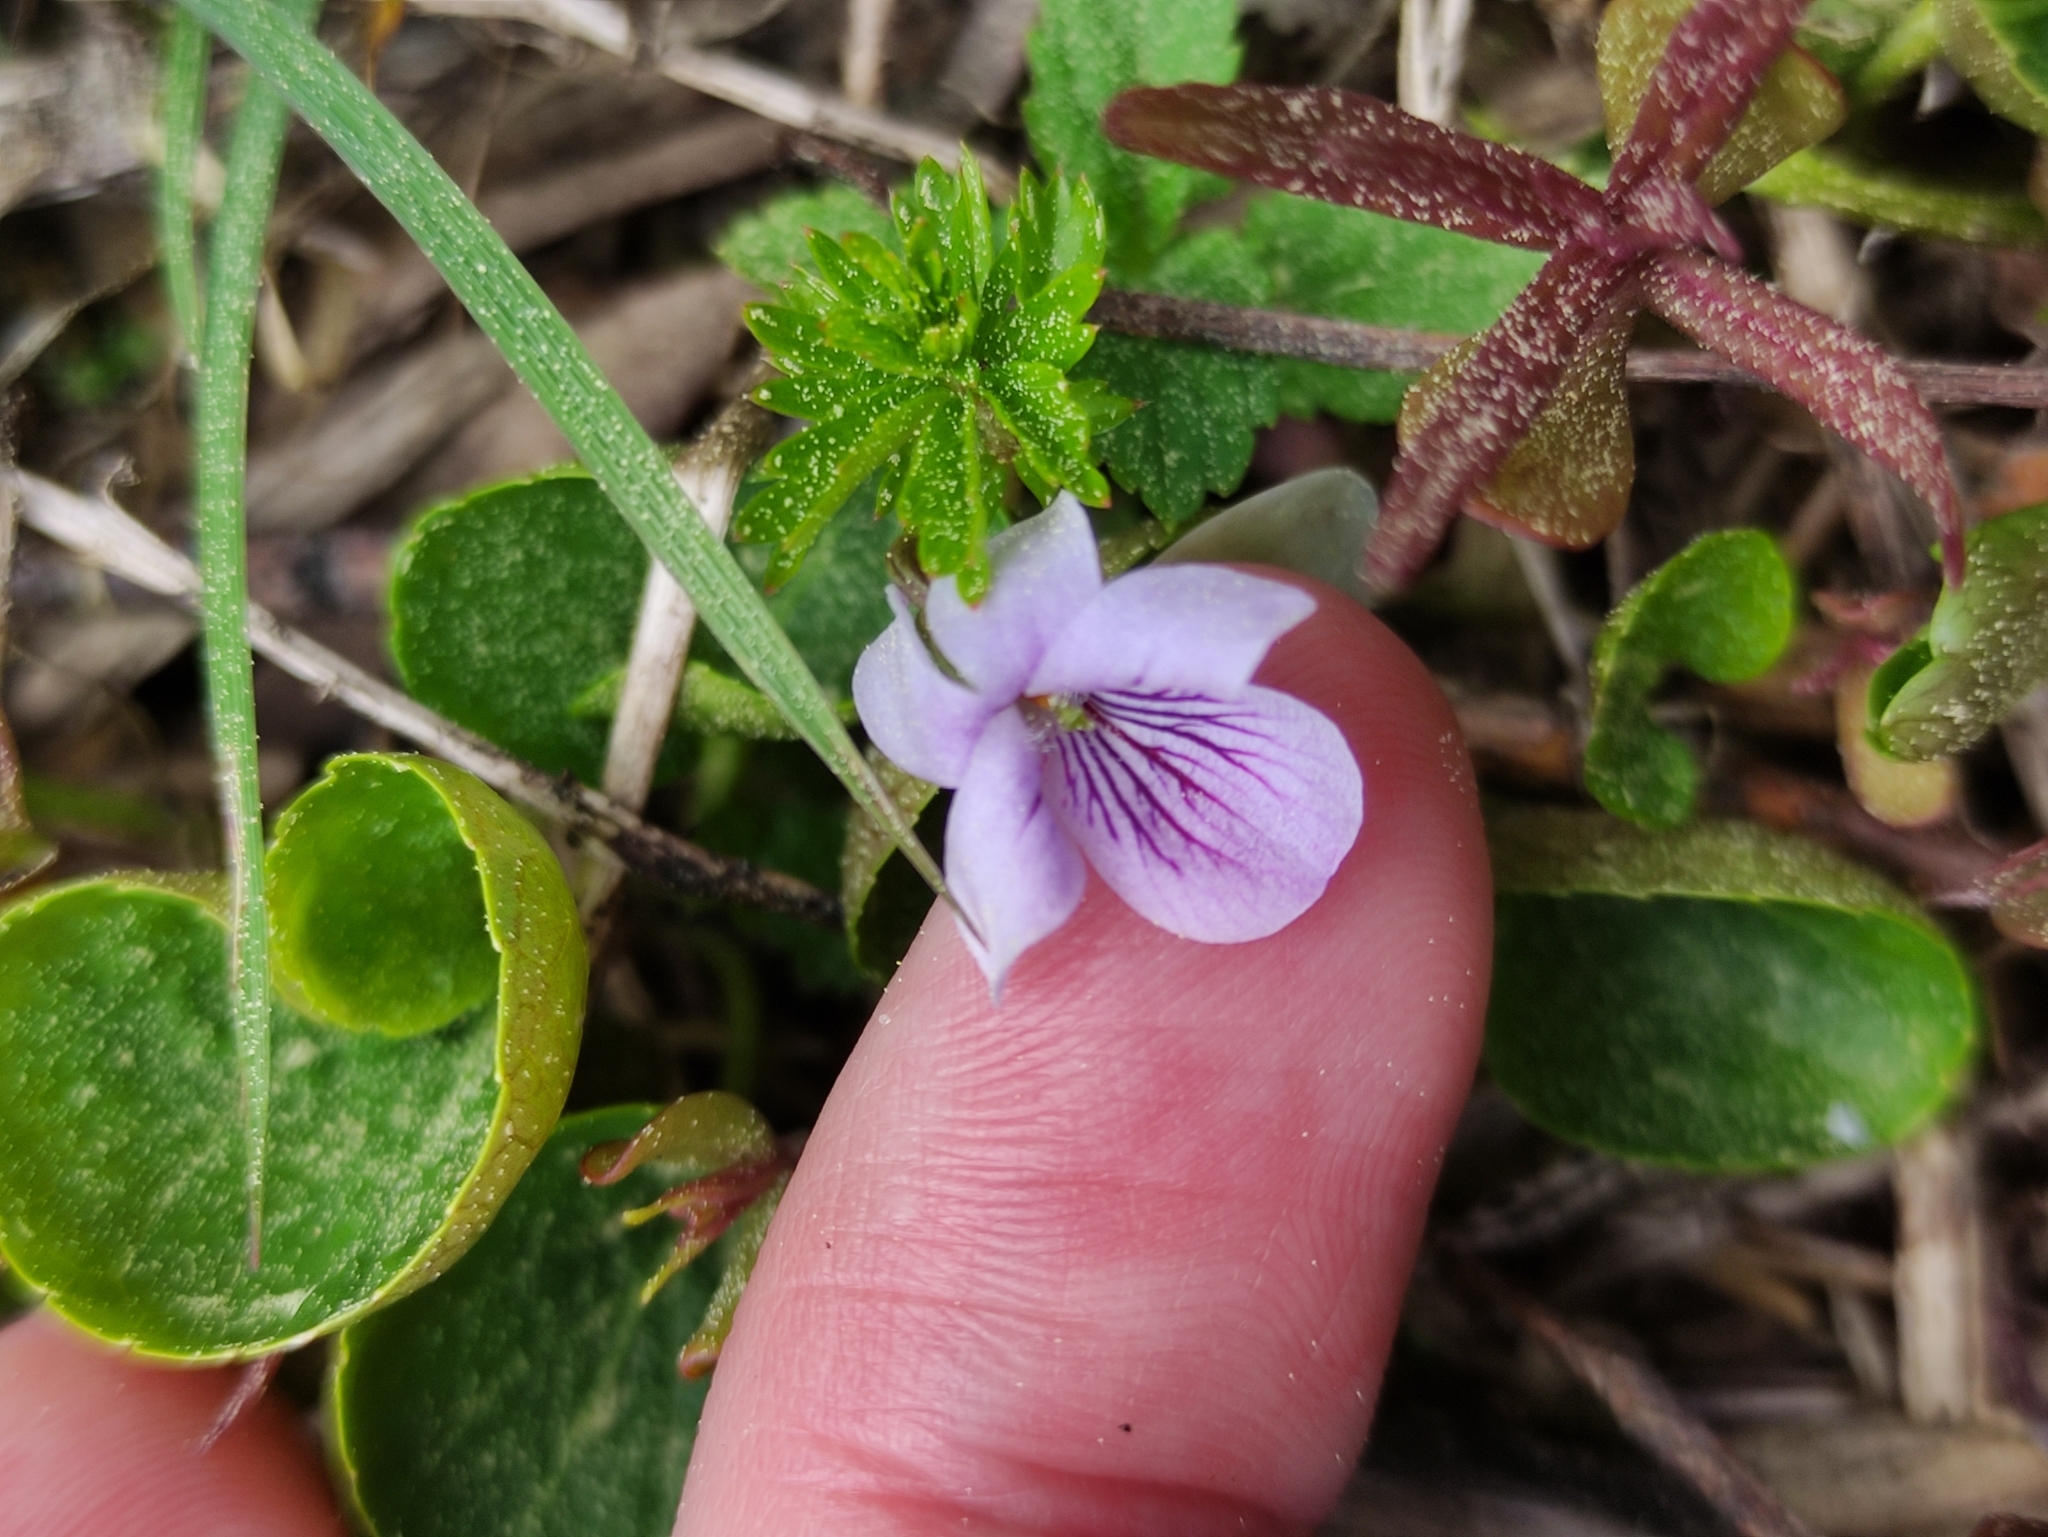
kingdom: Plantae
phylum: Tracheophyta
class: Magnoliopsida
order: Malpighiales
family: Violaceae
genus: Viola
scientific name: Viola palustris
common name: Marsh violet
